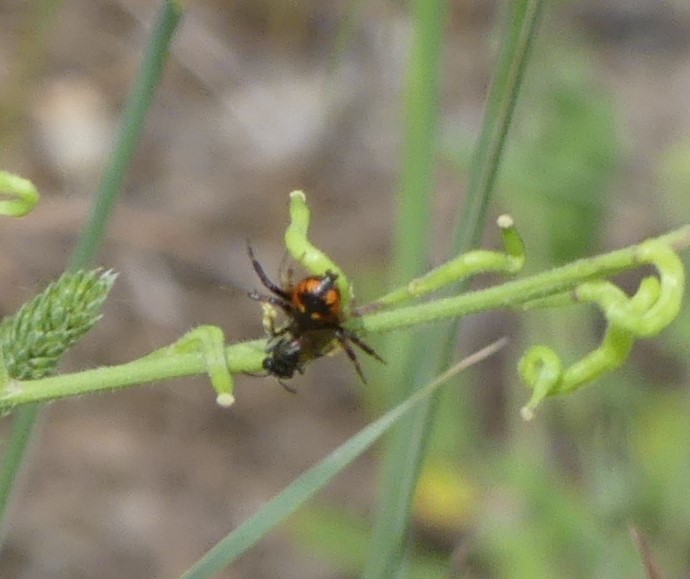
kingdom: Animalia
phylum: Arthropoda
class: Arachnida
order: Araneae
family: Thomisidae
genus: Synema
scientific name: Synema globosum
